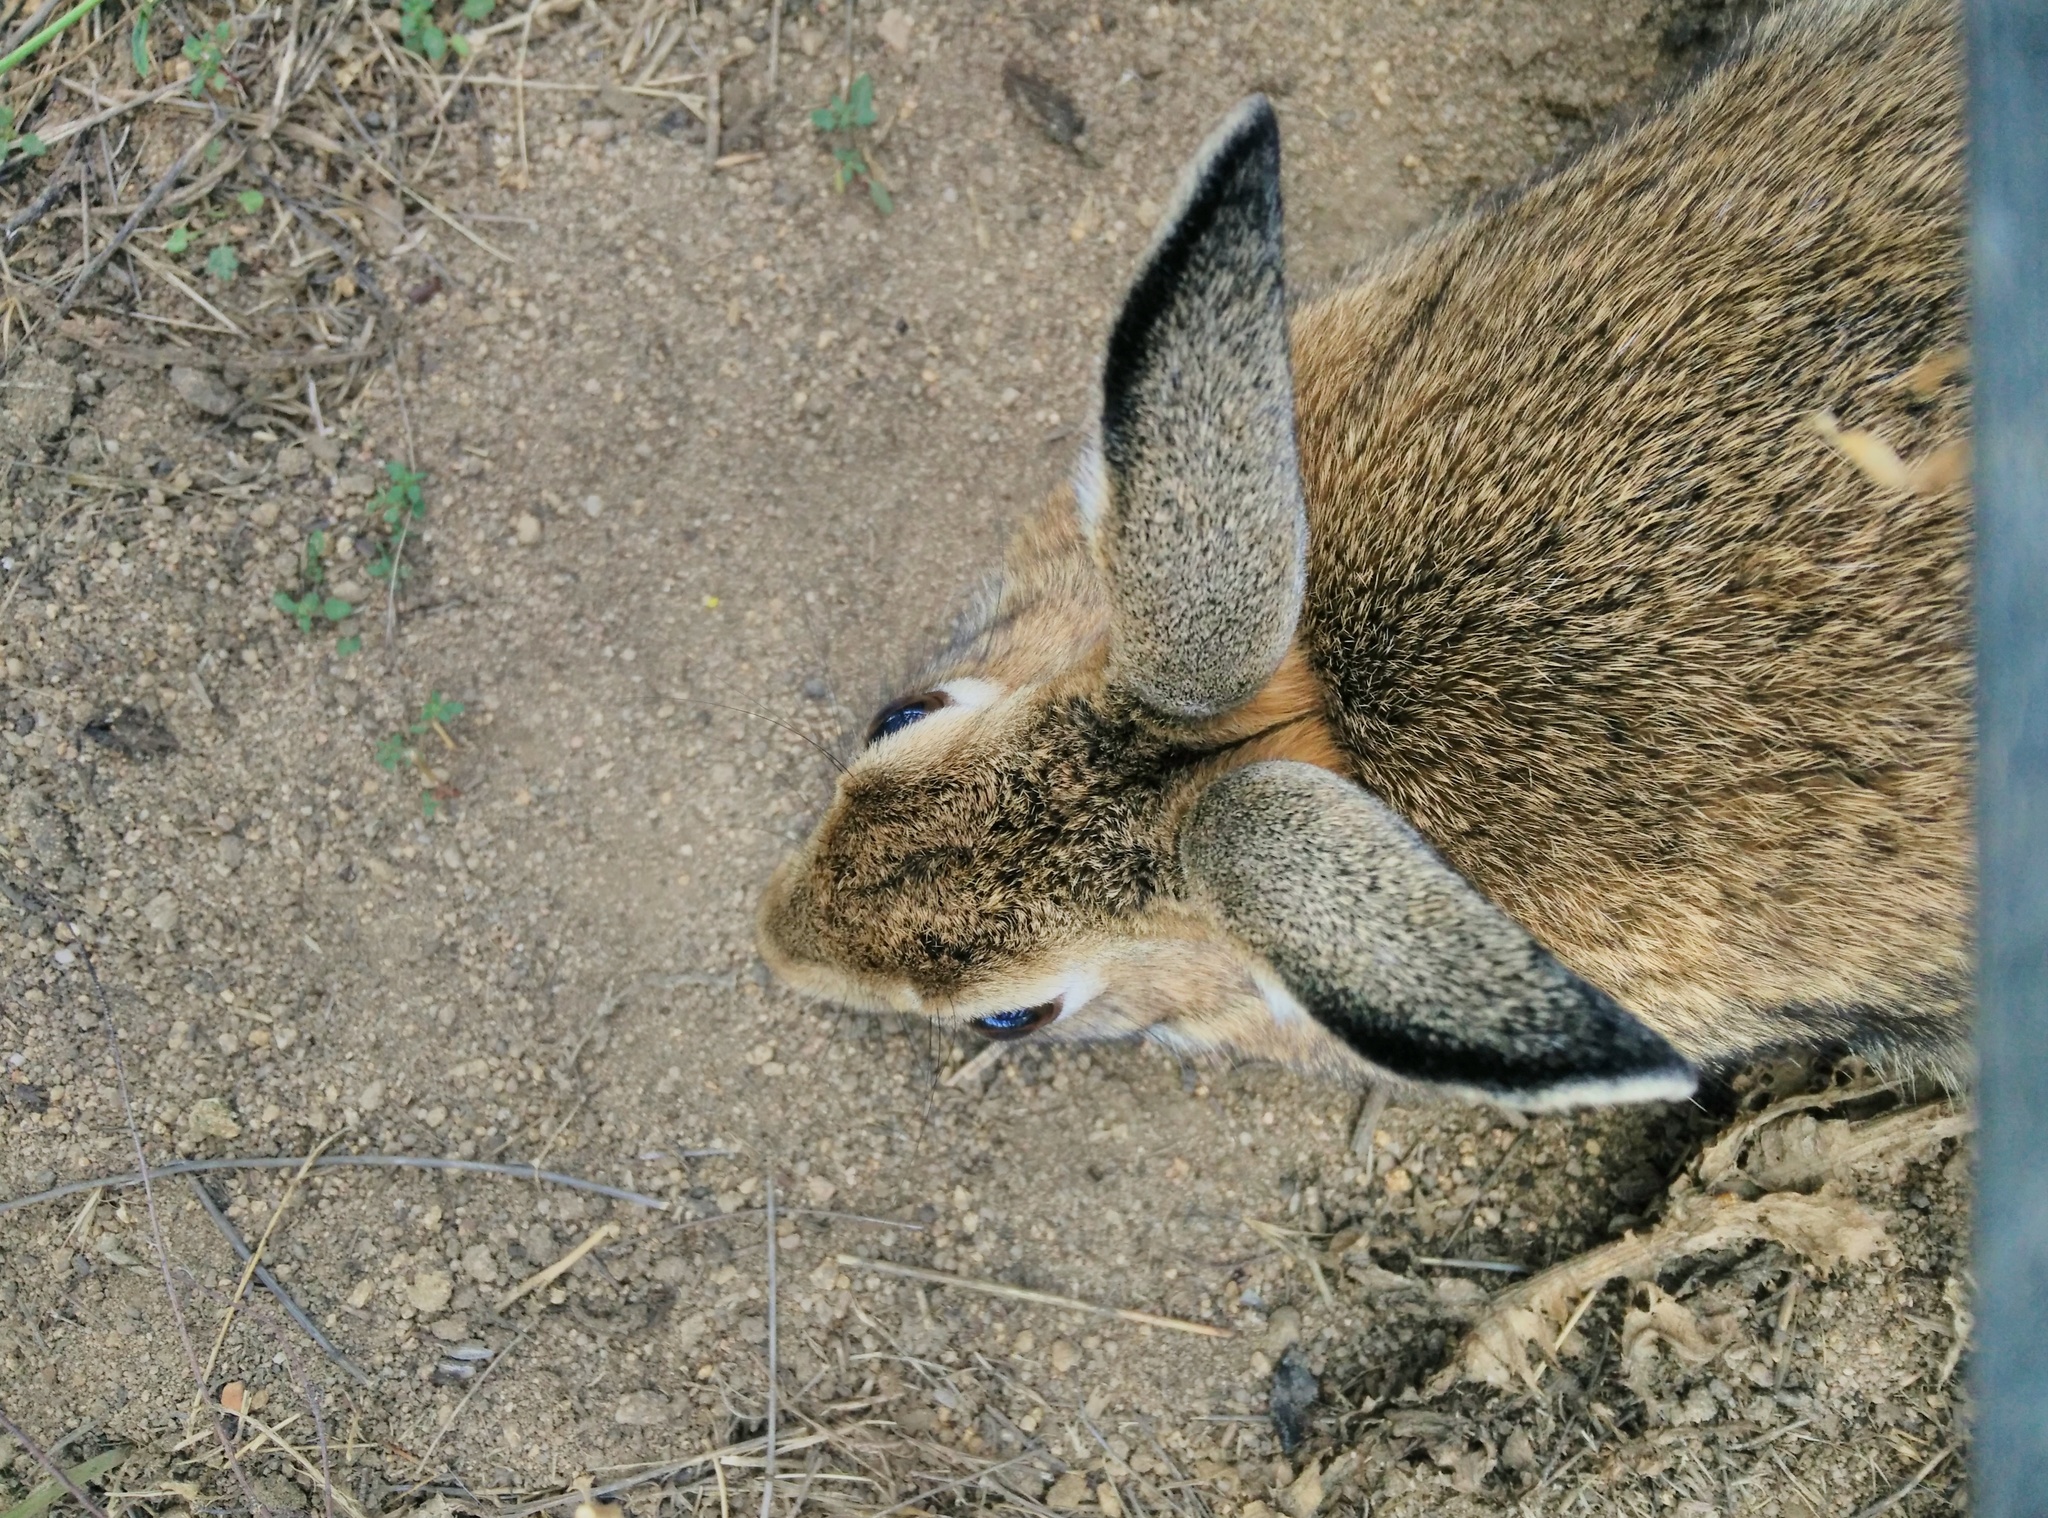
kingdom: Animalia
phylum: Chordata
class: Mammalia
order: Lagomorpha
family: Leporidae
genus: Oryctolagus
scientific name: Oryctolagus cuniculus
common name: European rabbit
